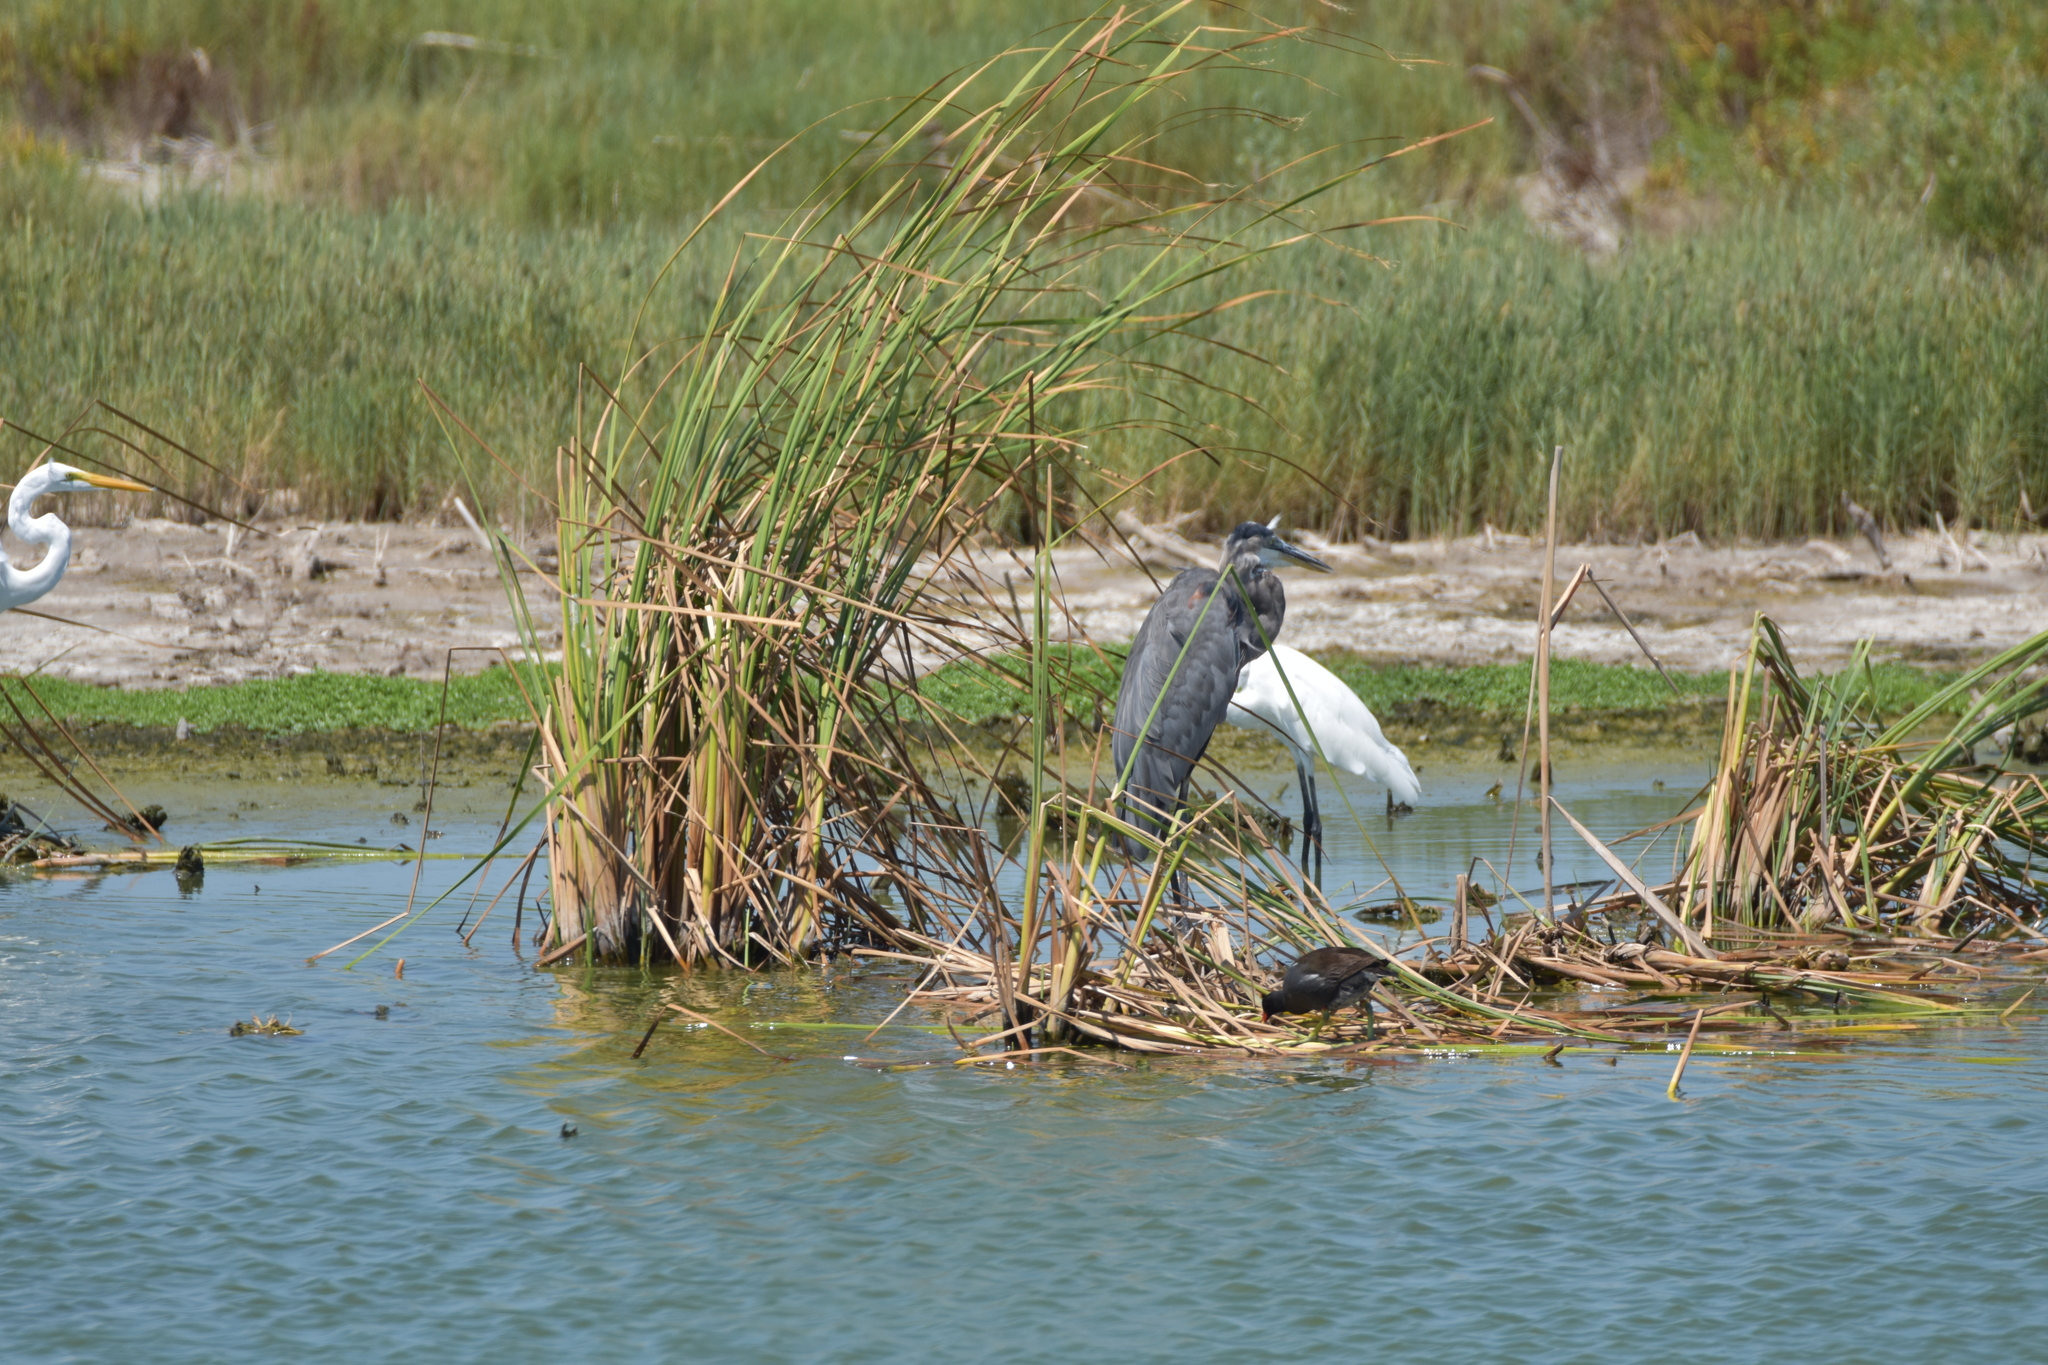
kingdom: Animalia
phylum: Chordata
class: Aves
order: Pelecaniformes
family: Ardeidae
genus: Ardea
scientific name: Ardea herodias
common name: Great blue heron
